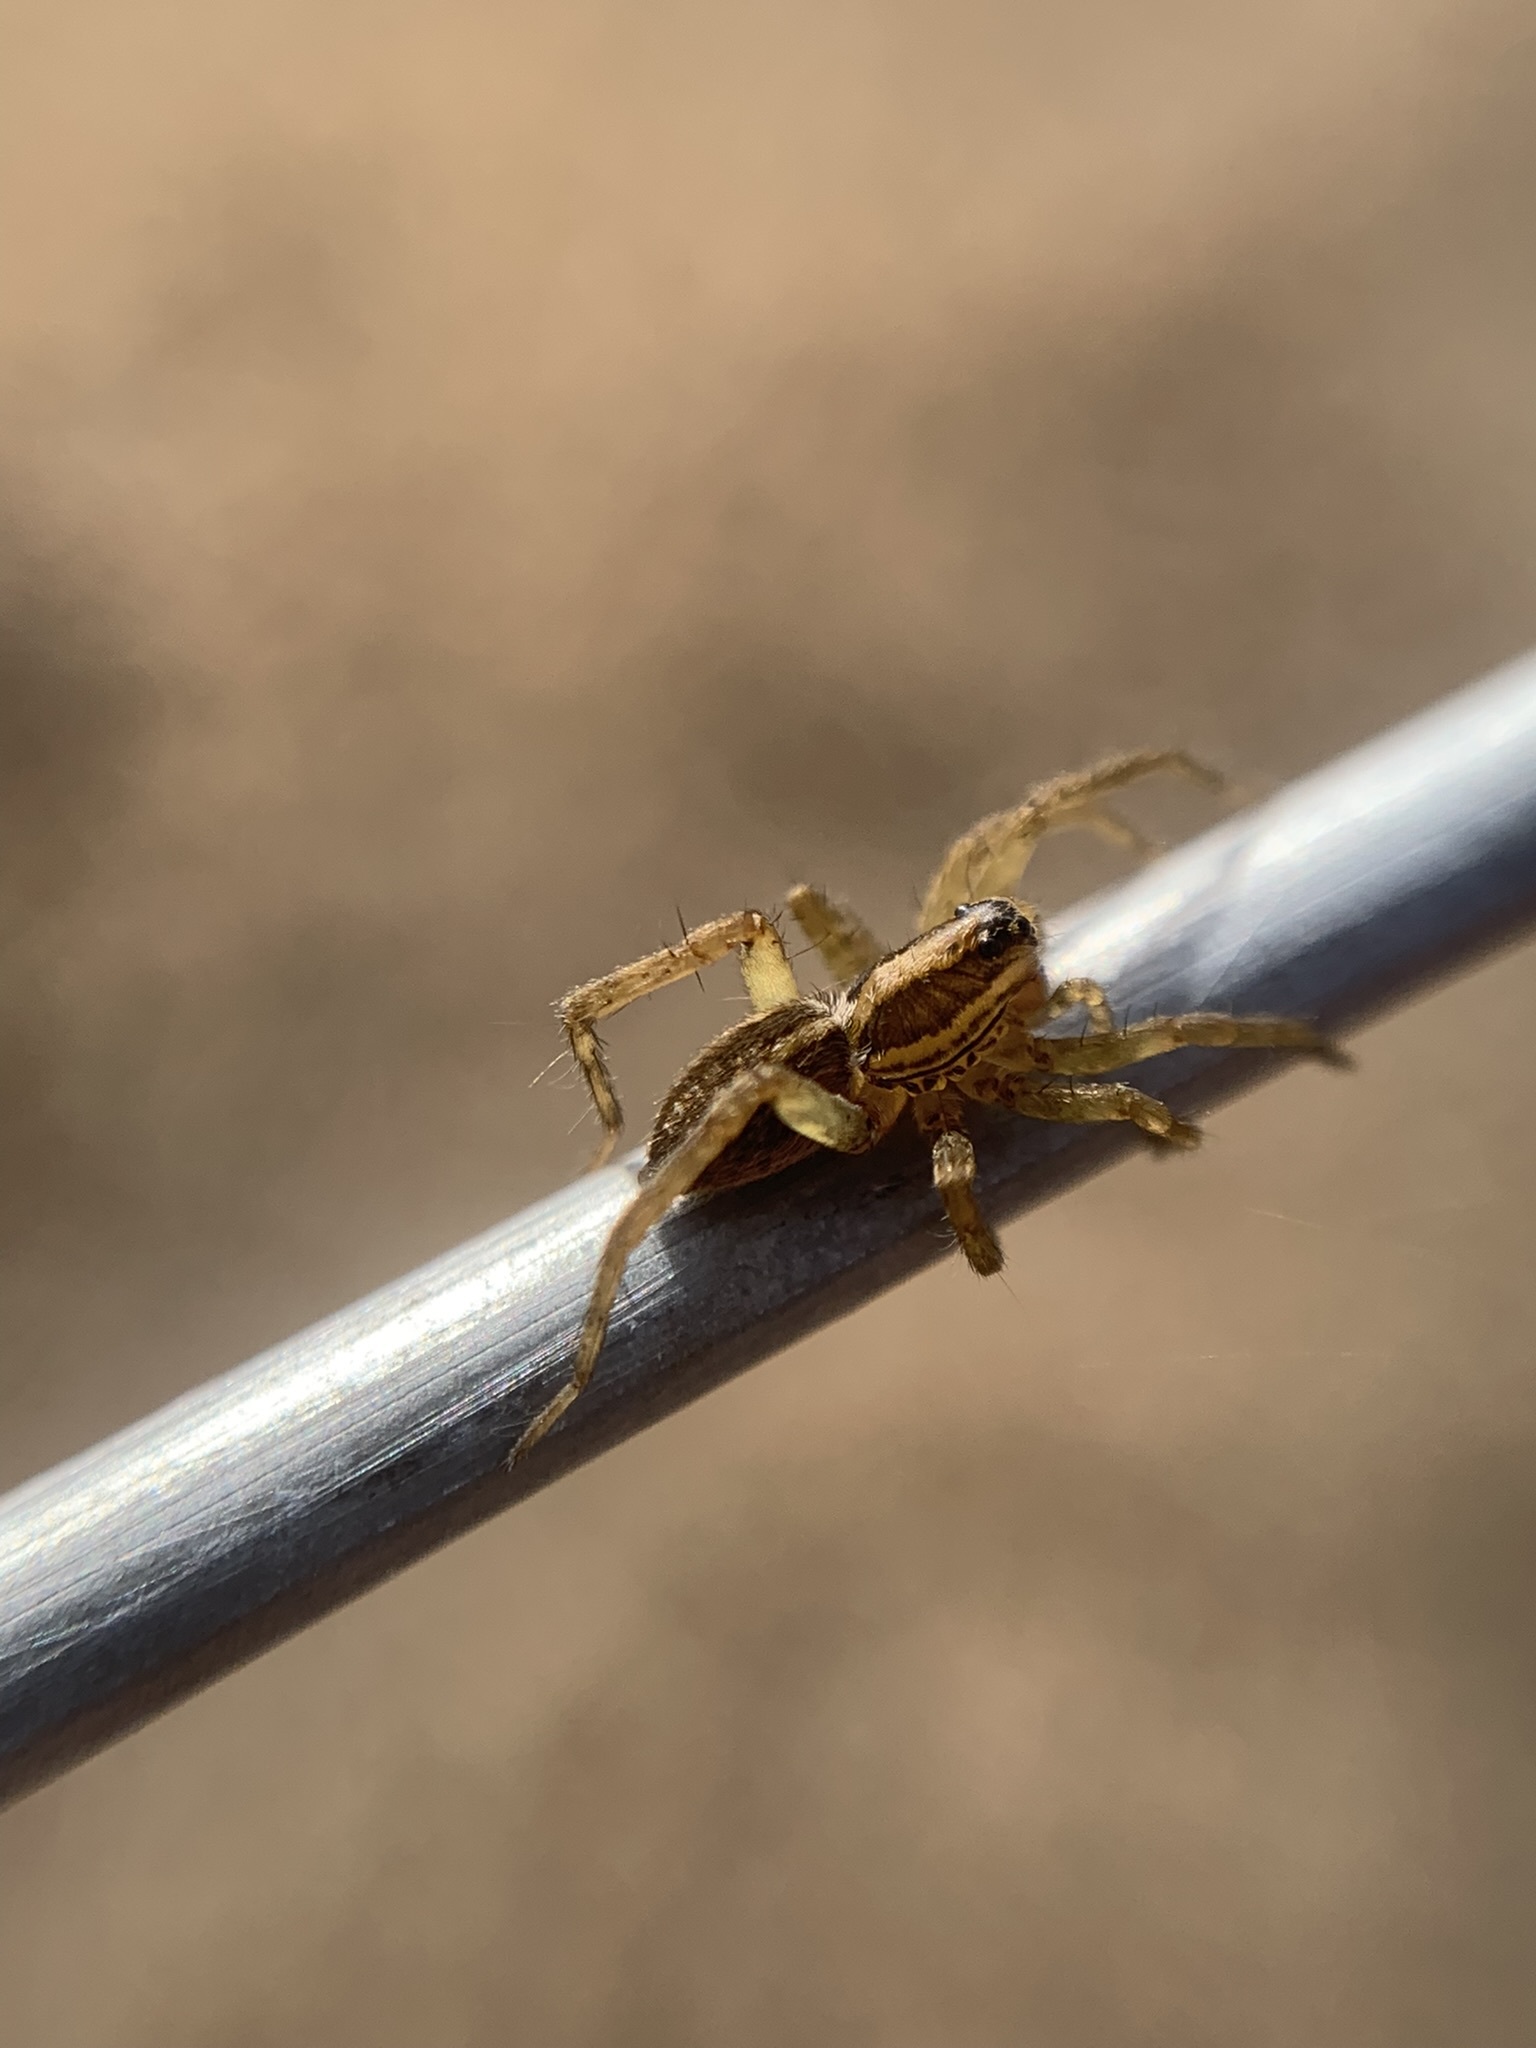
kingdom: Animalia
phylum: Arthropoda
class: Arachnida
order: Araneae
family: Lycosidae
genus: Alopecosa
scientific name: Alopecosa moesta
